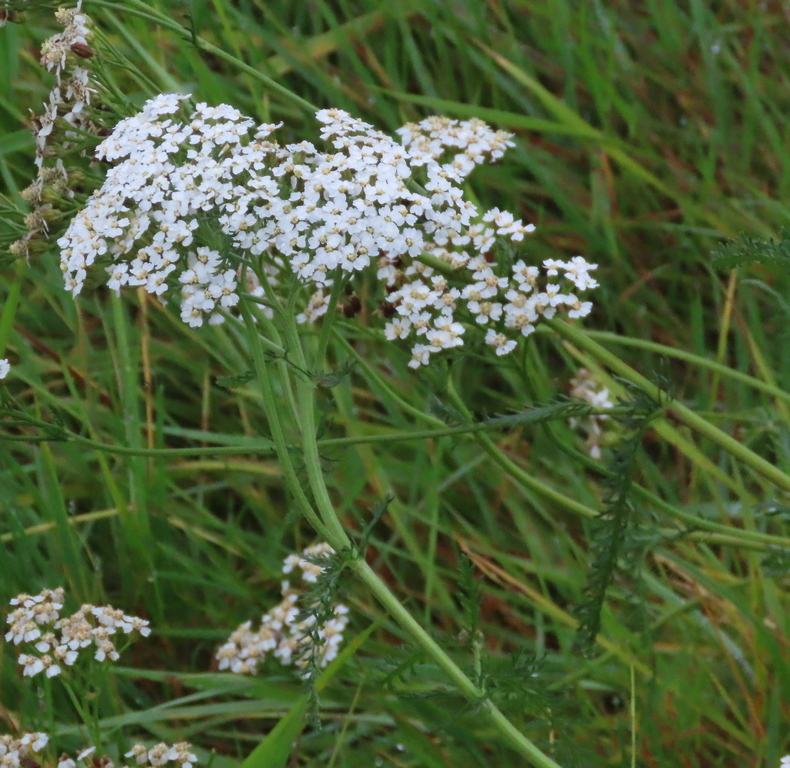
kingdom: Plantae
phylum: Tracheophyta
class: Magnoliopsida
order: Asterales
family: Asteraceae
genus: Achillea
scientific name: Achillea millefolium
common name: Yarrow
